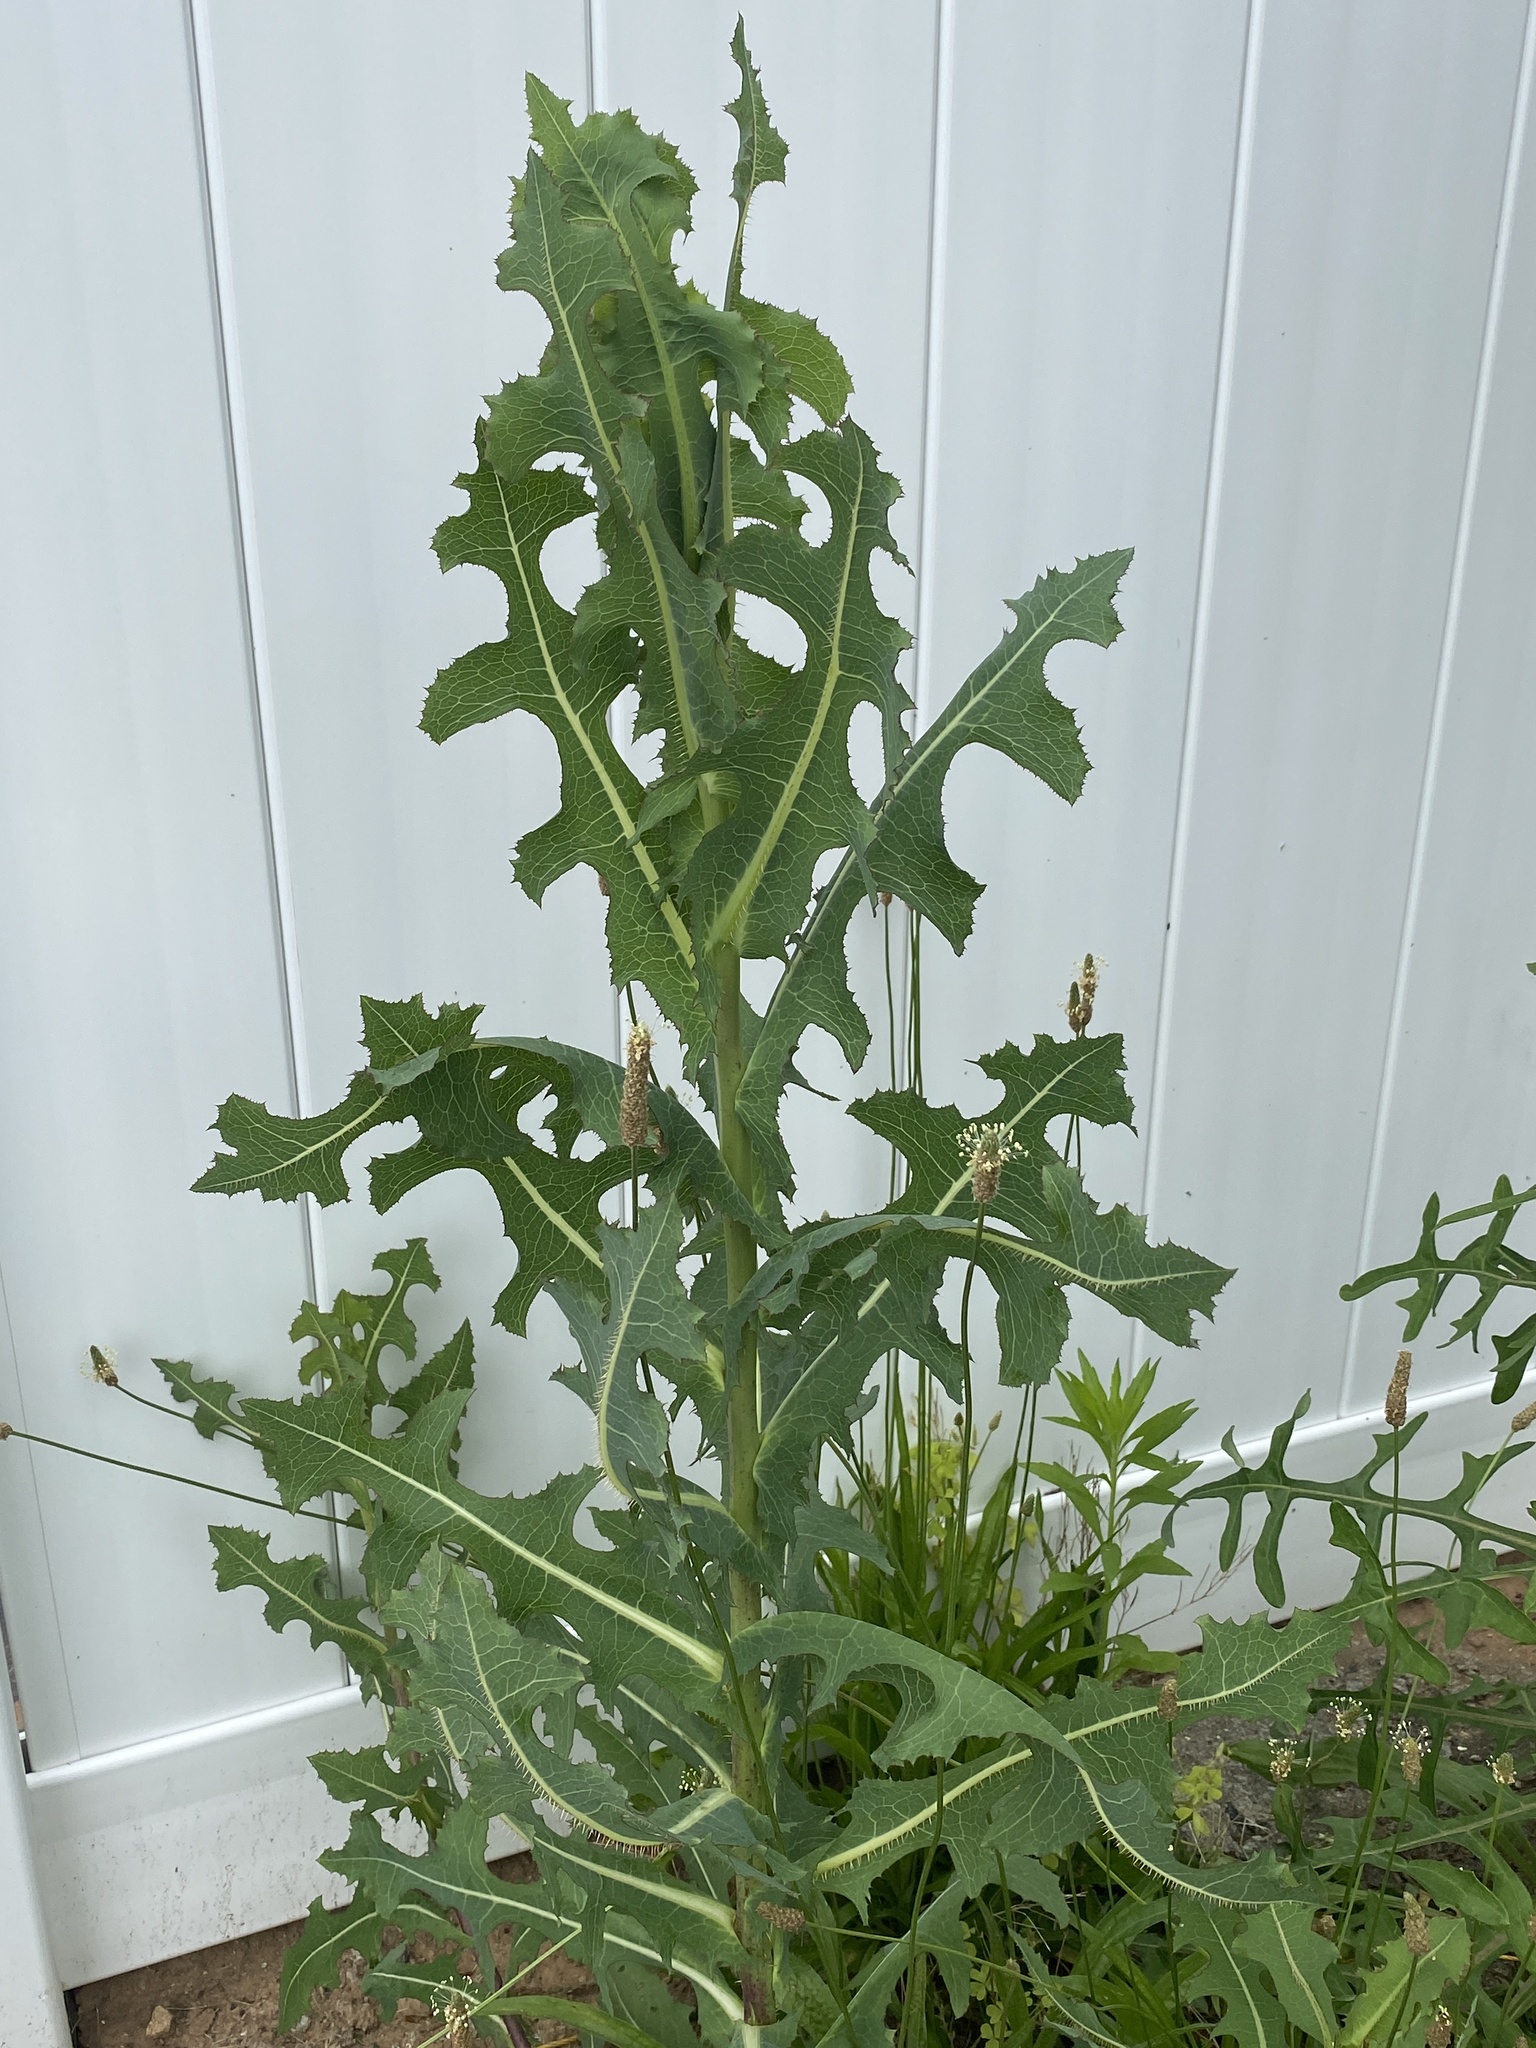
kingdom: Plantae
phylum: Tracheophyta
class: Magnoliopsida
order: Asterales
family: Asteraceae
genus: Lactuca
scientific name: Lactuca serriola
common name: Prickly lettuce
